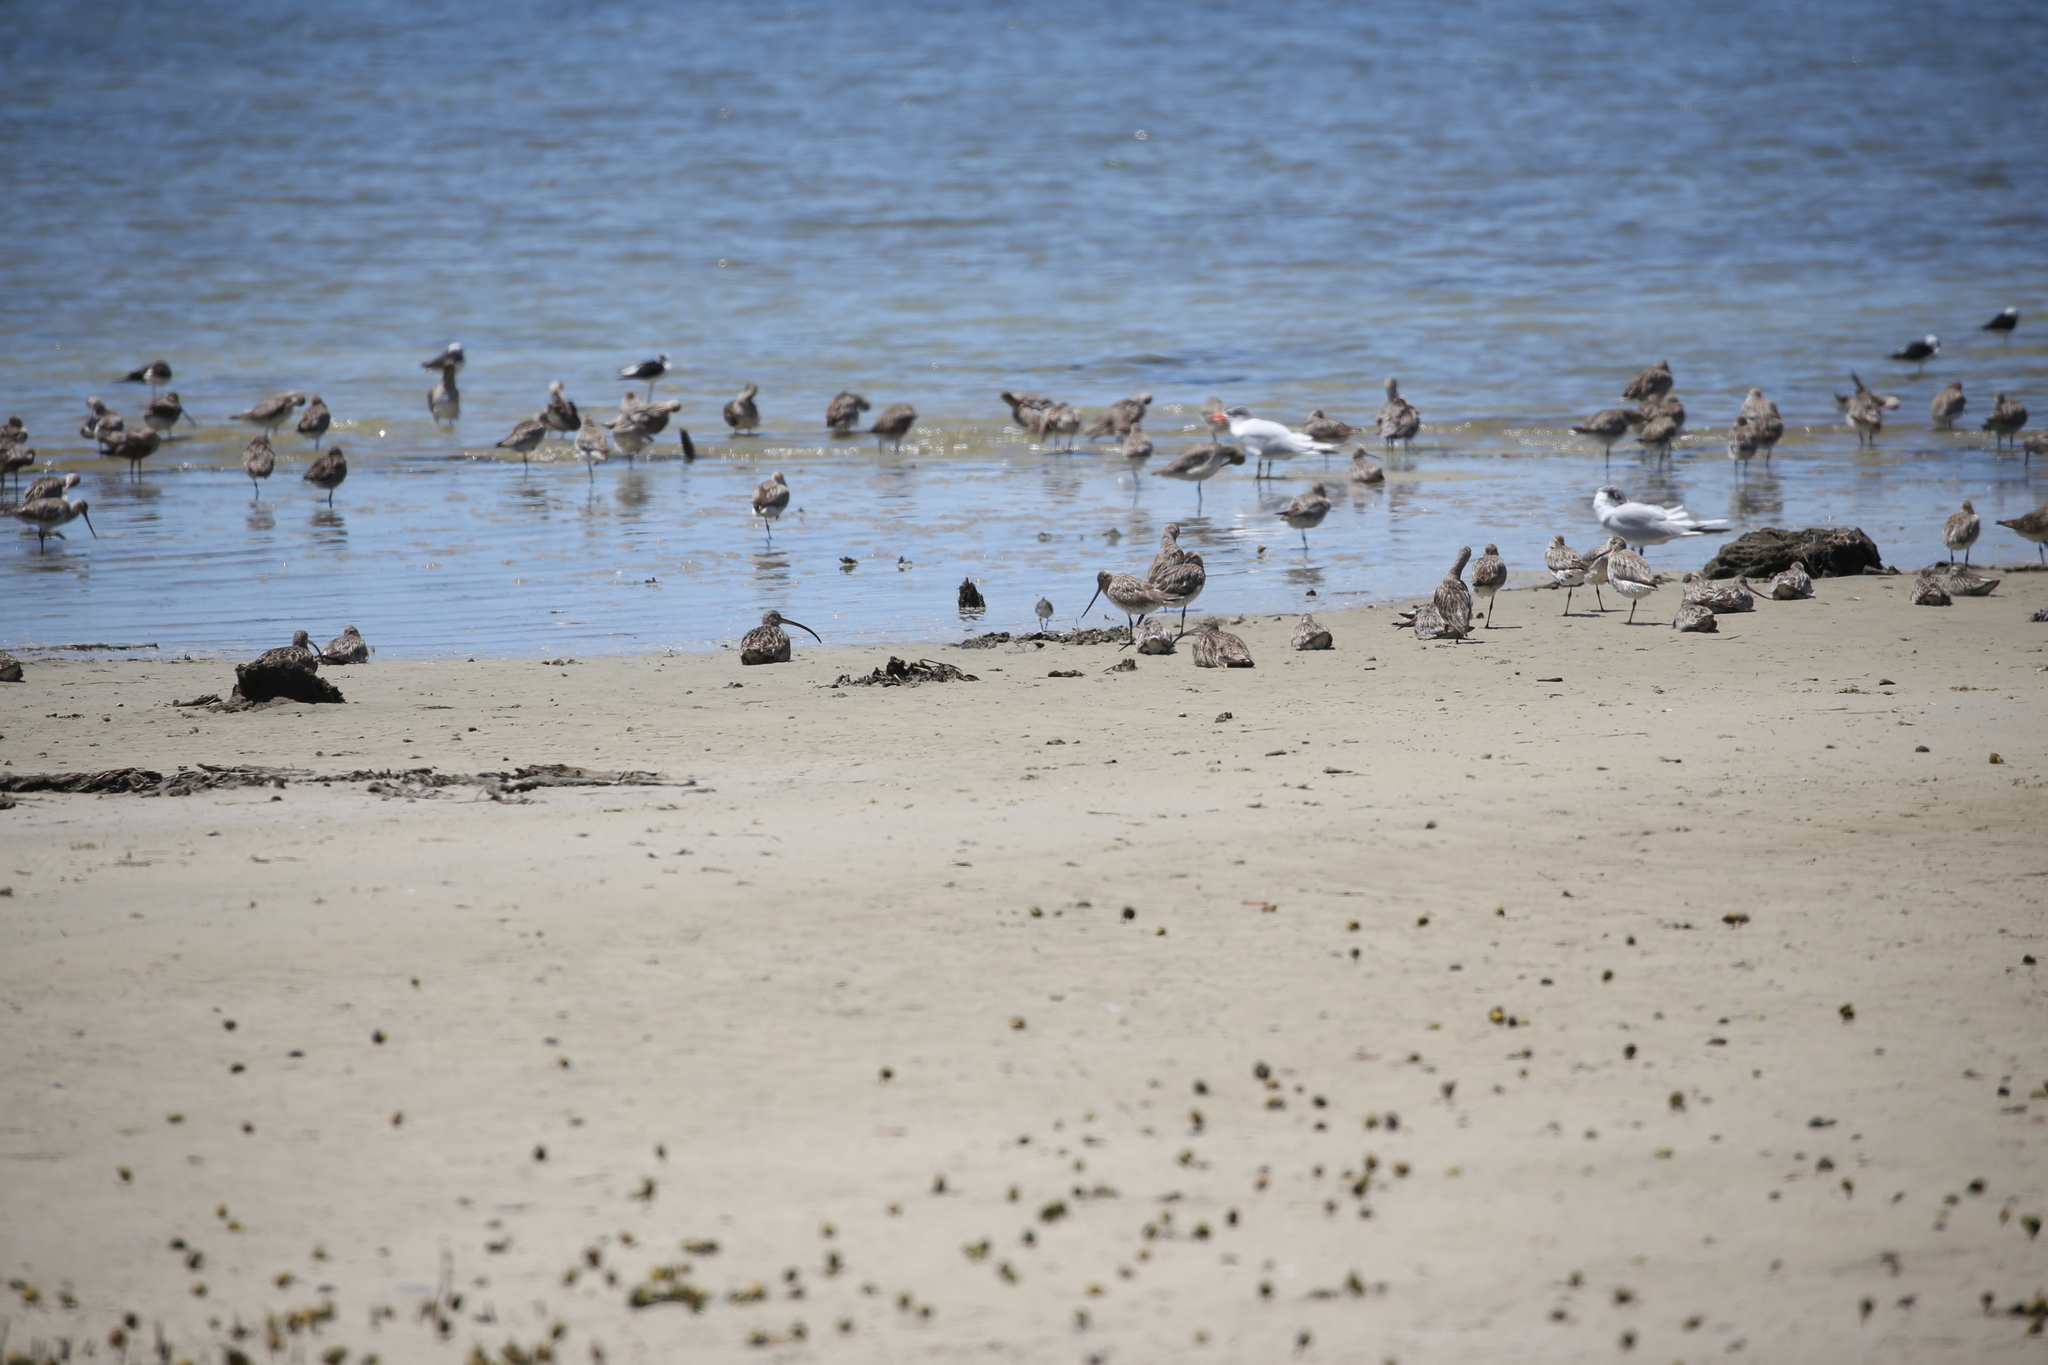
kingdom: Animalia
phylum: Chordata
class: Aves
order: Charadriiformes
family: Laridae
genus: Hydroprogne
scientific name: Hydroprogne caspia
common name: Caspian tern
